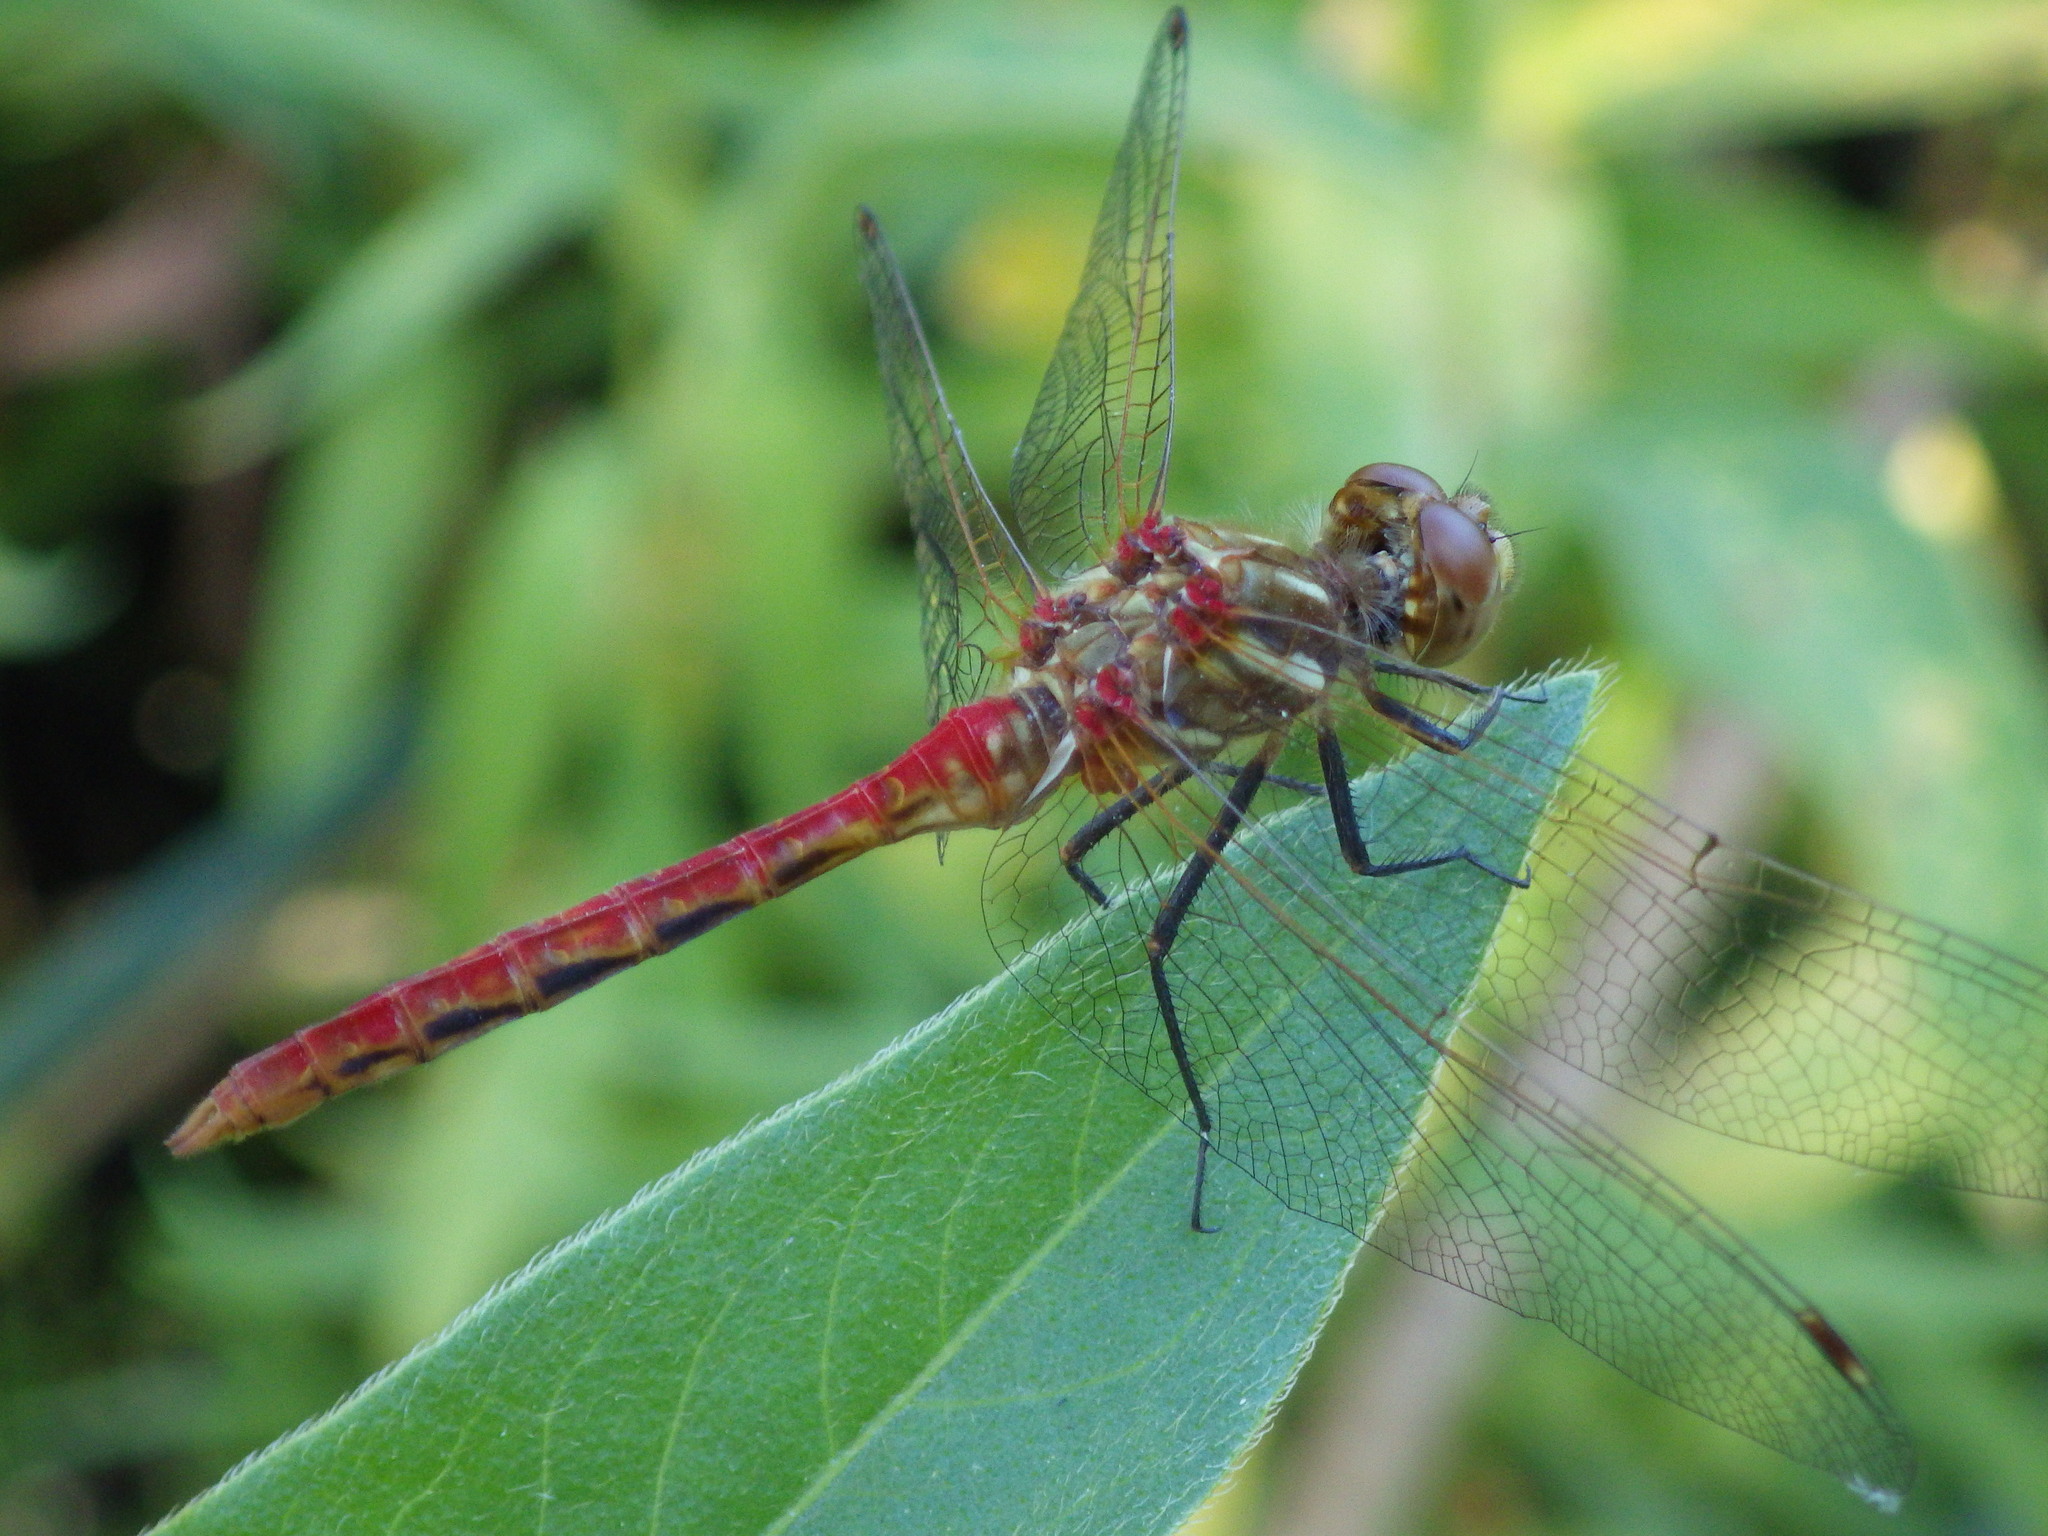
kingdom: Animalia
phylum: Arthropoda
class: Insecta
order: Odonata
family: Libellulidae
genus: Sympetrum
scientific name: Sympetrum pallipes
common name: Striped meadowhawk
